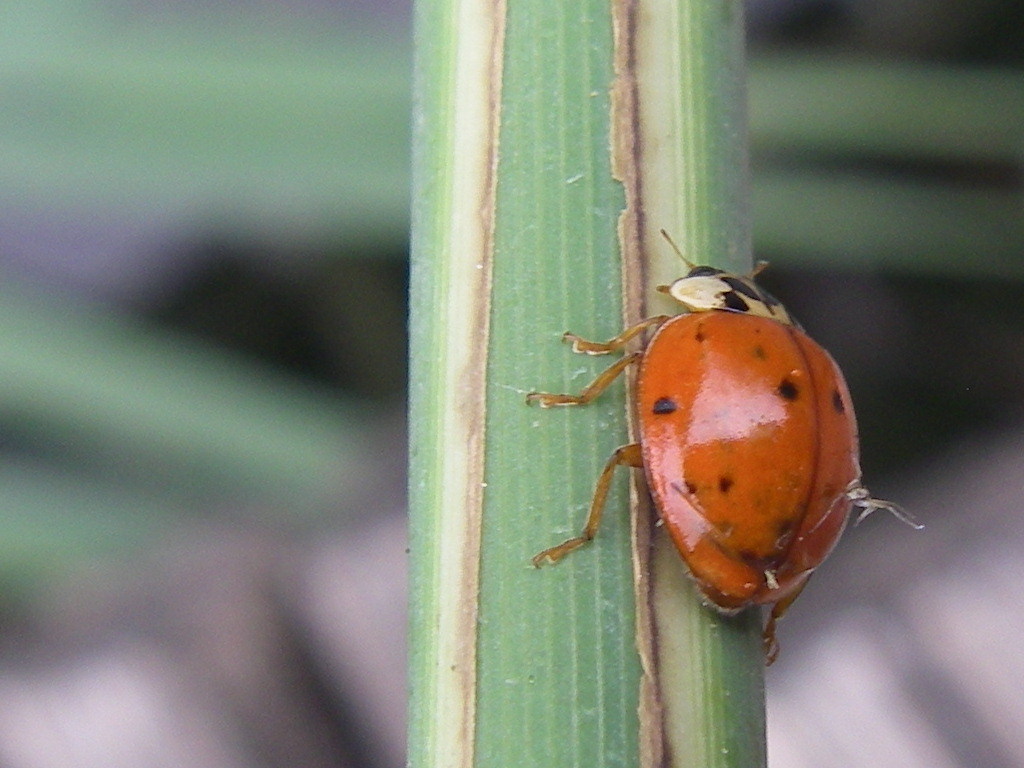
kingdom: Animalia
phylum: Arthropoda
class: Insecta
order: Coleoptera
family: Coccinellidae
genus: Harmonia
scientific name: Harmonia axyridis
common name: Harlequin ladybird
